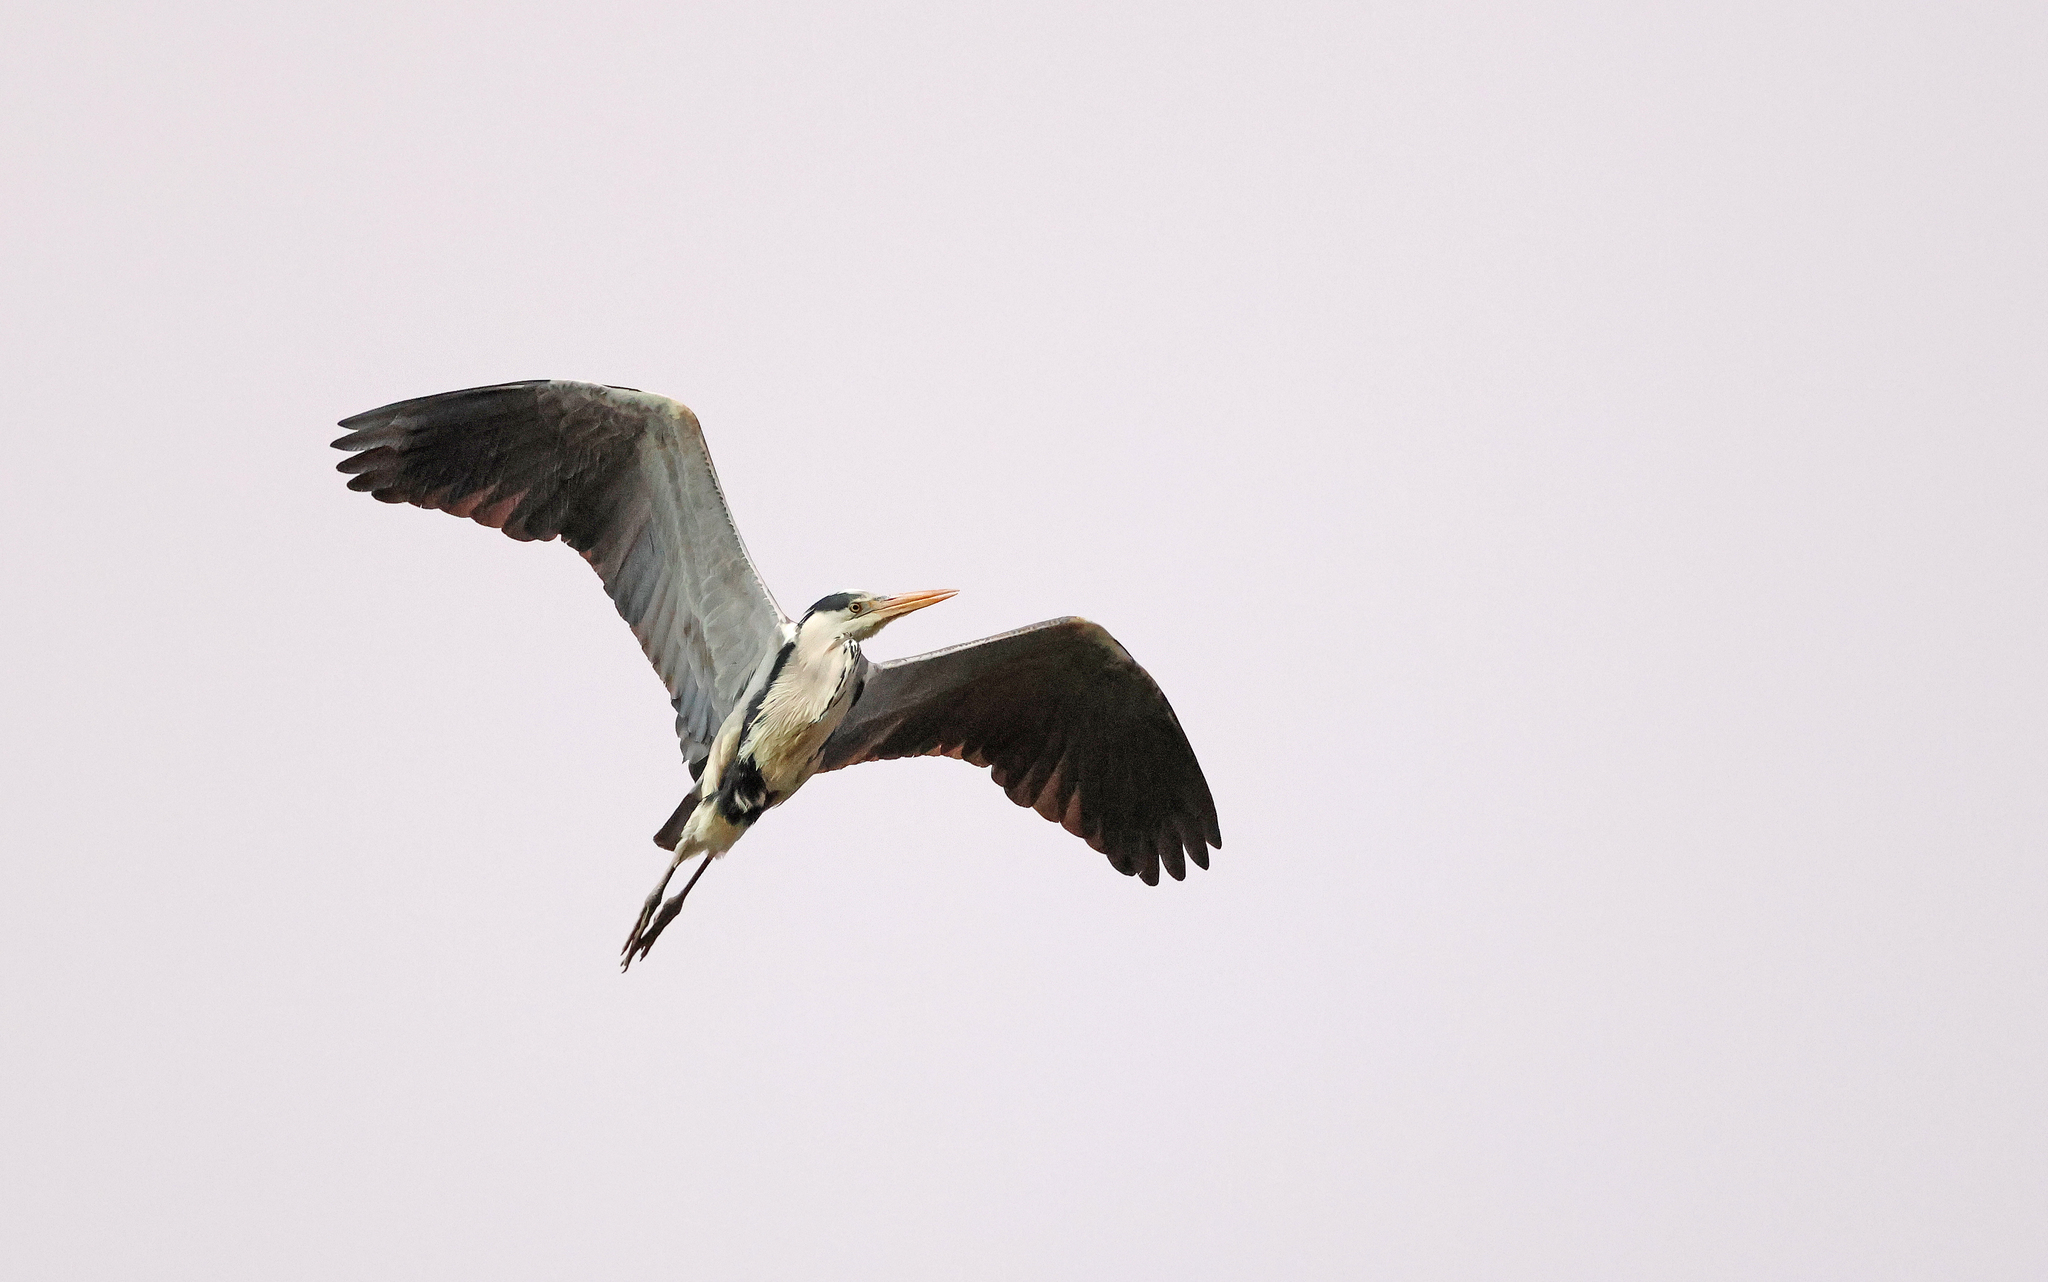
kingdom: Animalia
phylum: Chordata
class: Aves
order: Pelecaniformes
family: Ardeidae
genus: Ardea
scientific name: Ardea cinerea
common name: Grey heron
